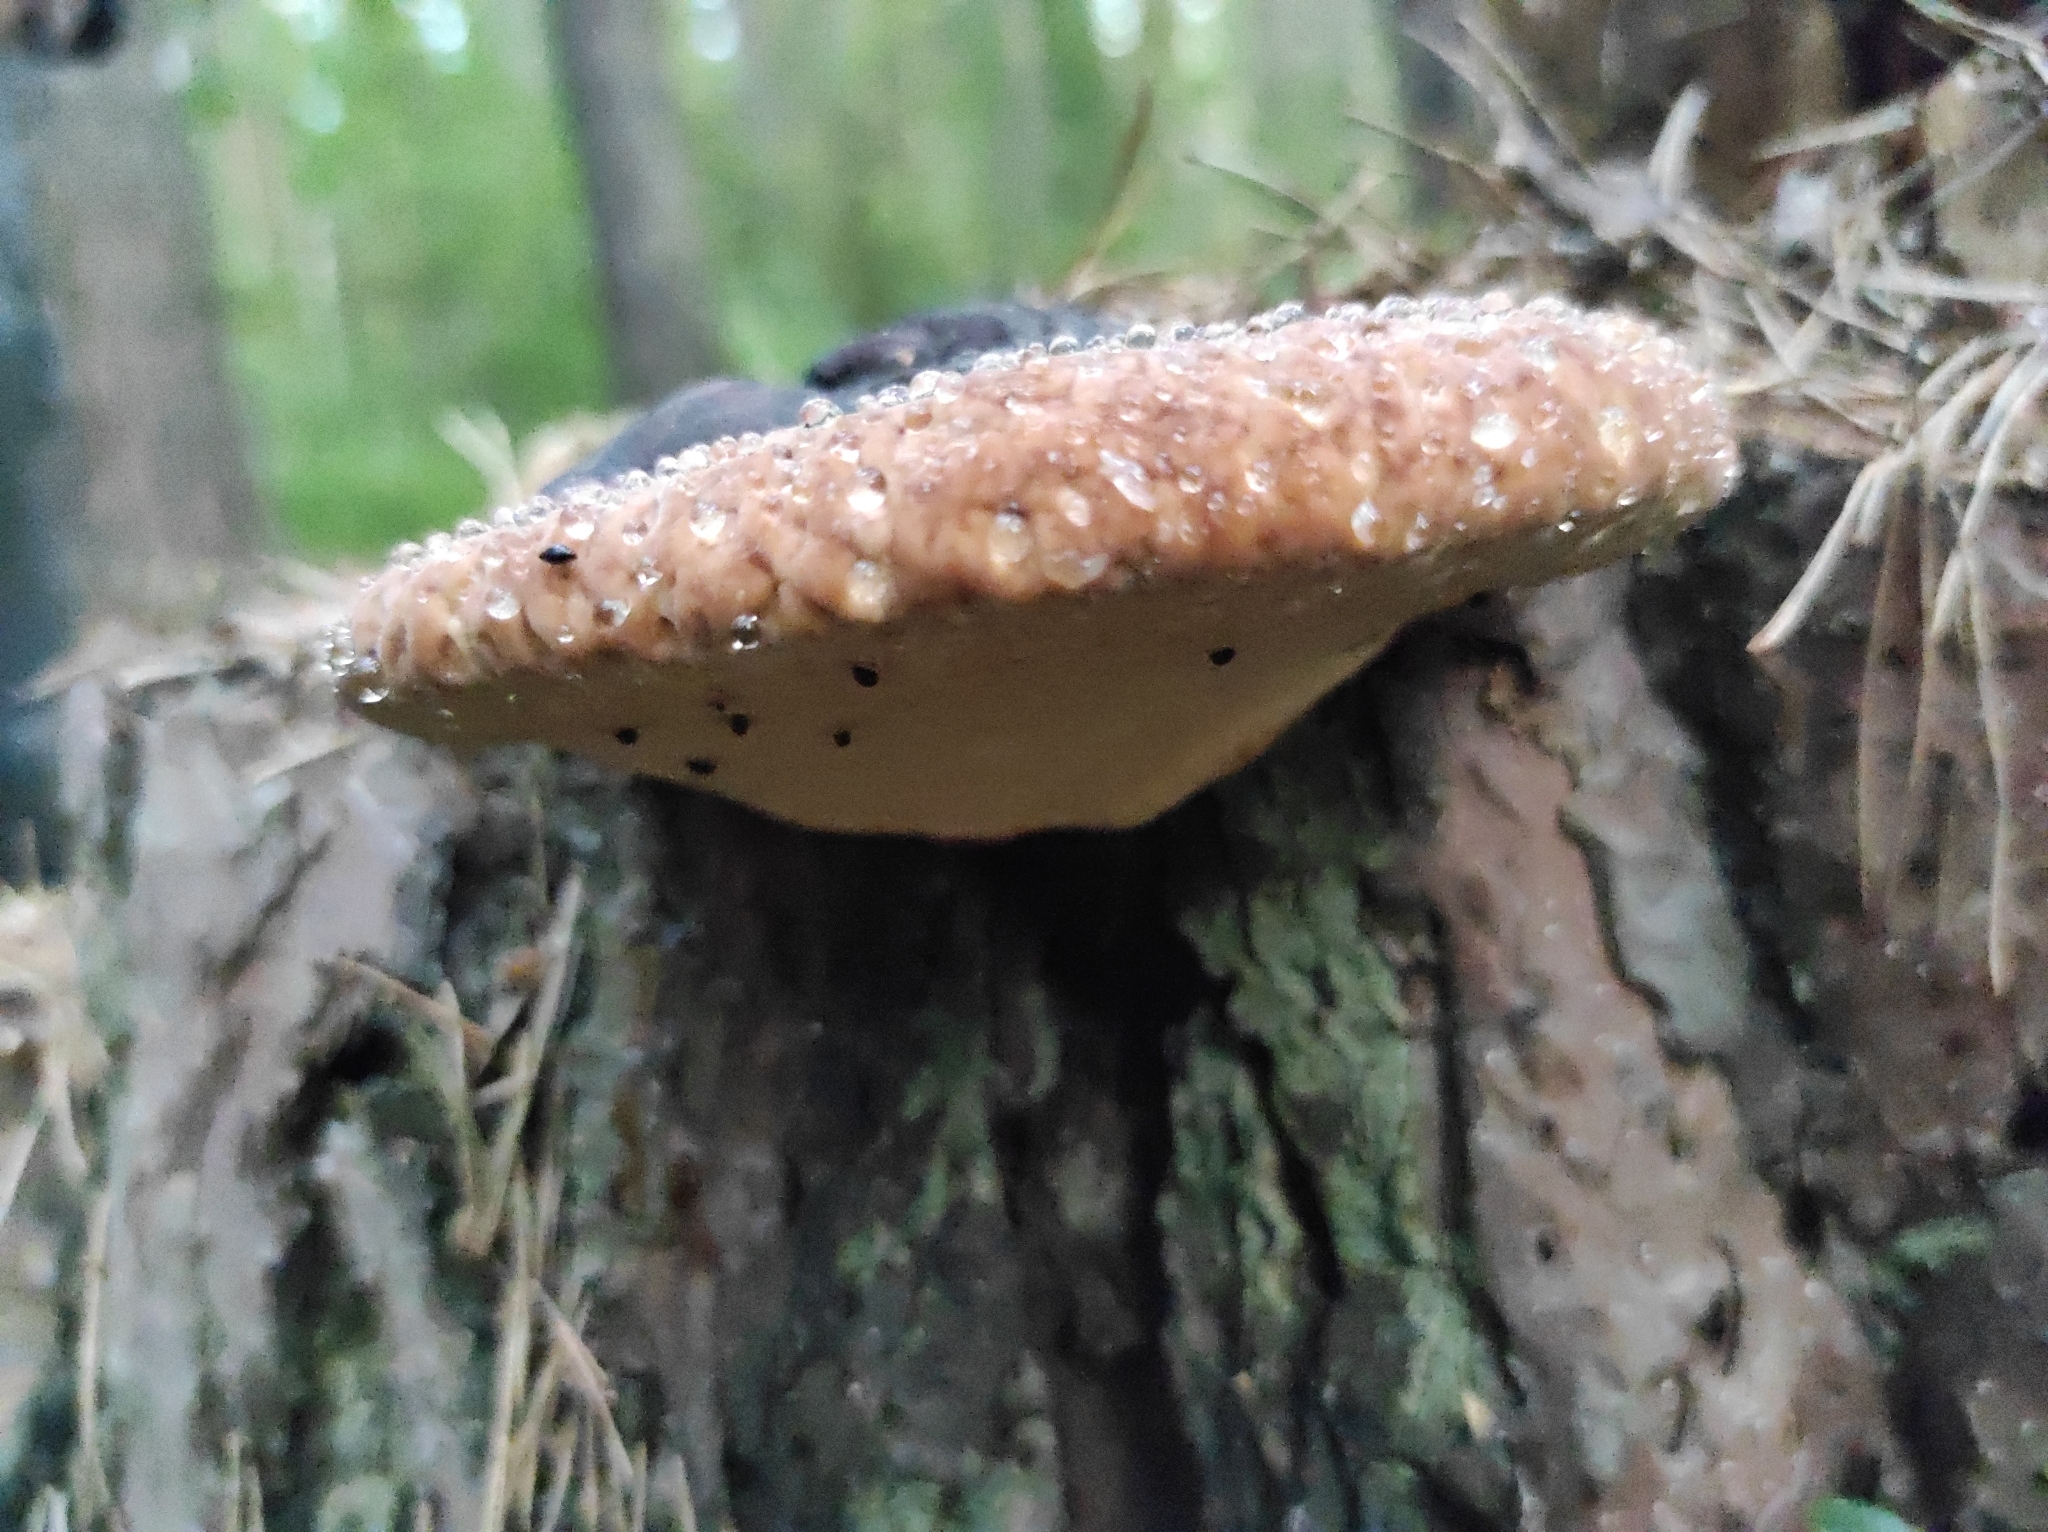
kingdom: Fungi
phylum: Basidiomycota
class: Agaricomycetes
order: Polyporales
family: Fomitopsidaceae
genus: Fomitopsis
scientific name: Fomitopsis pinicola
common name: Red-belted bracket
